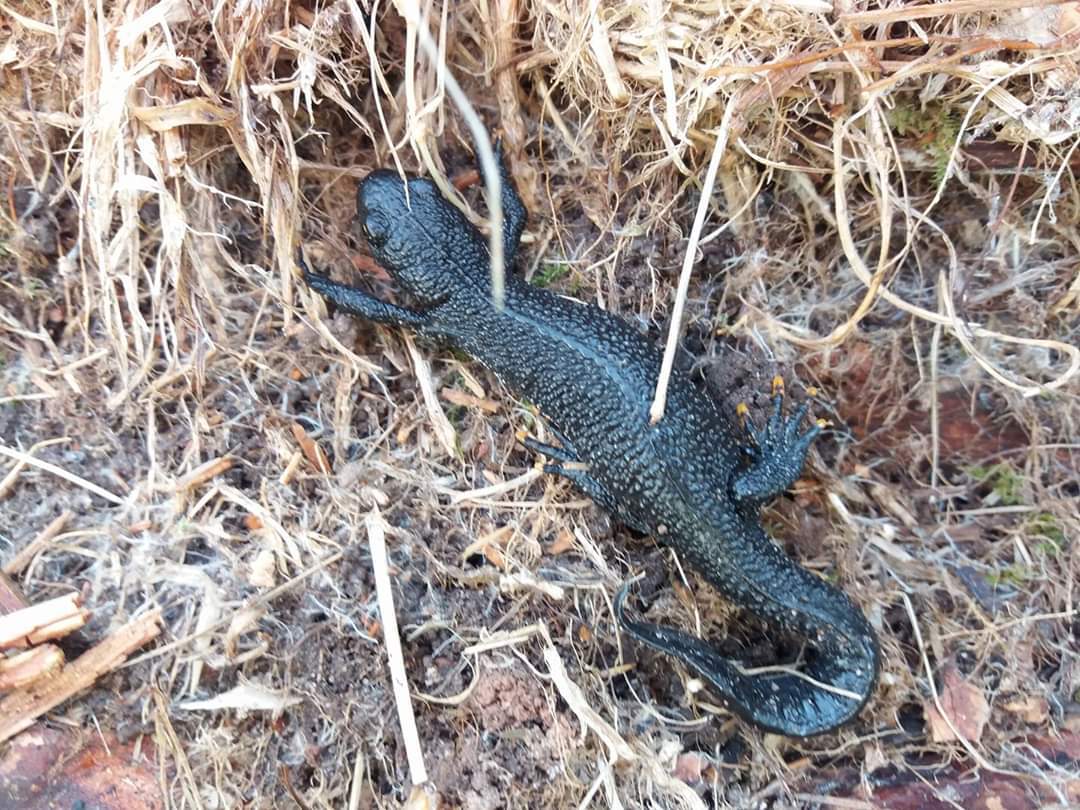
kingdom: Animalia
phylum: Chordata
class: Amphibia
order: Caudata
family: Salamandridae
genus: Triturus
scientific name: Triturus cristatus
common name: Crested newt
